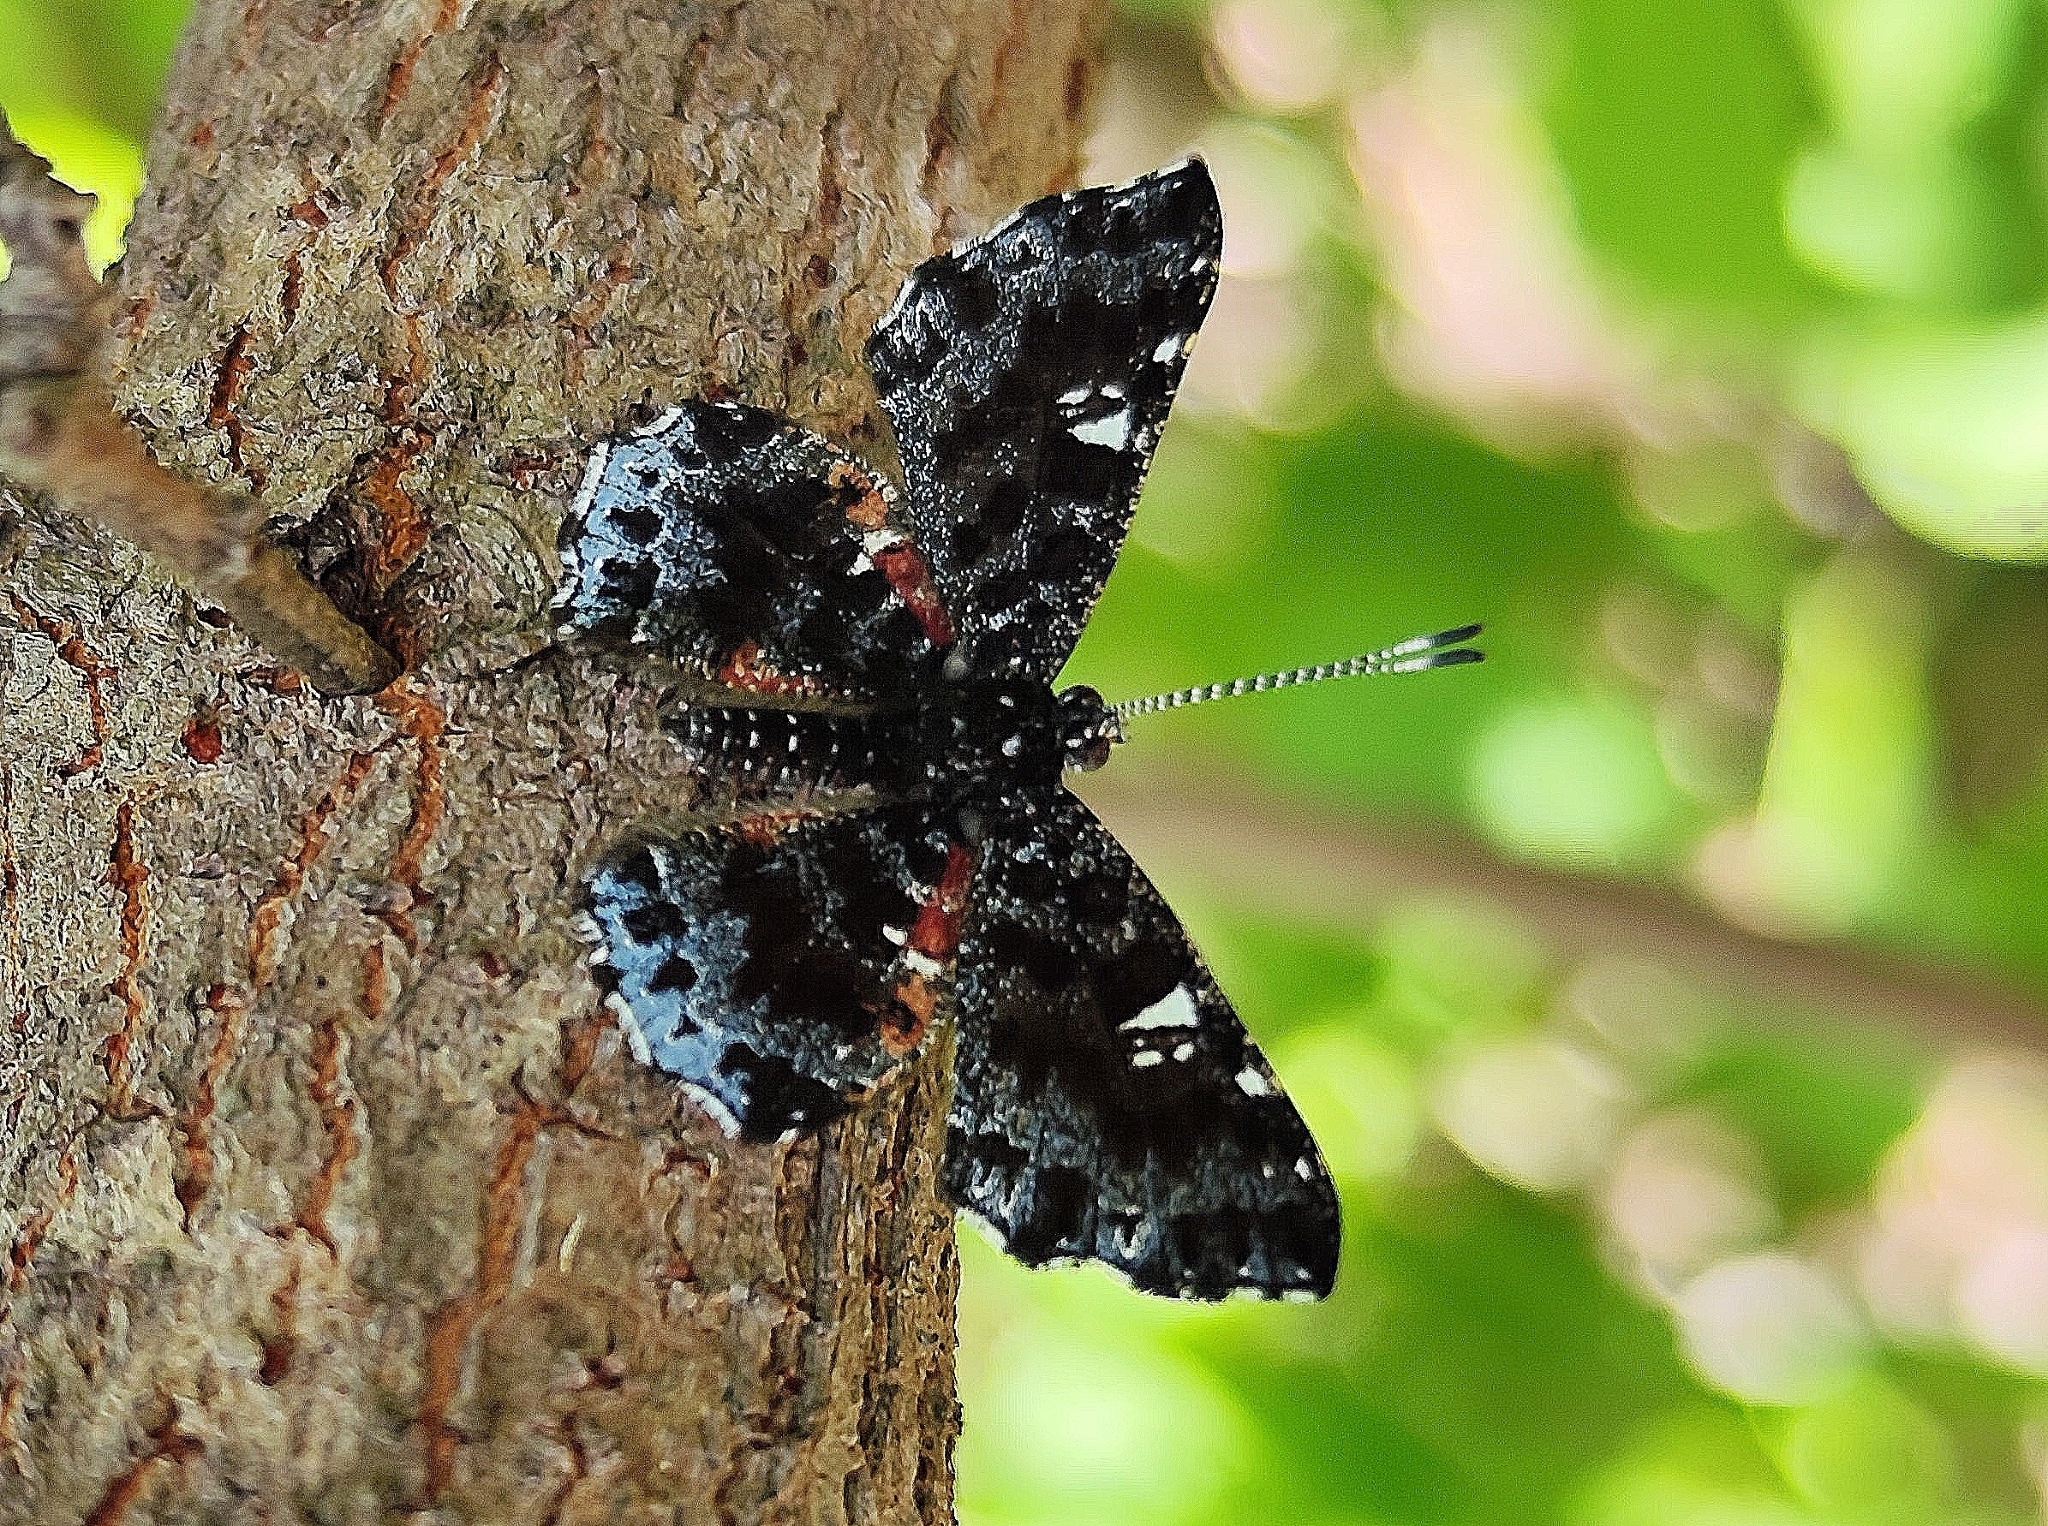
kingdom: Animalia
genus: Calydna
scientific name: Calydna candace
